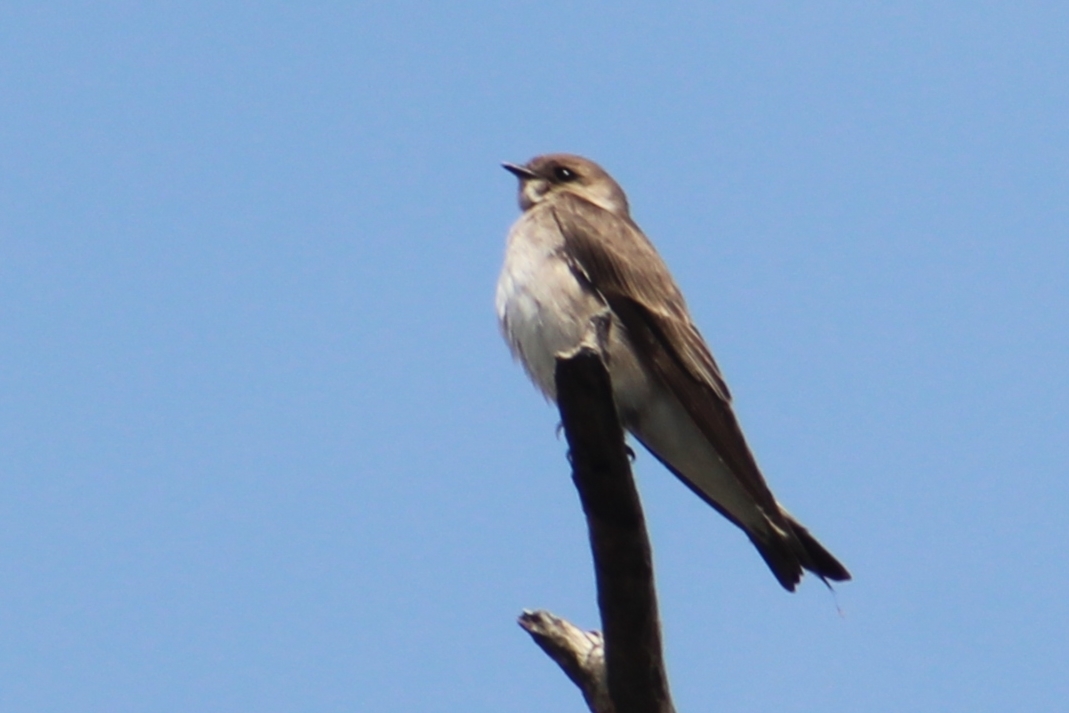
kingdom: Animalia
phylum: Chordata
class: Aves
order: Passeriformes
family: Hirundinidae
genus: Stelgidopteryx
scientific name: Stelgidopteryx serripennis
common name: Northern rough-winged swallow
